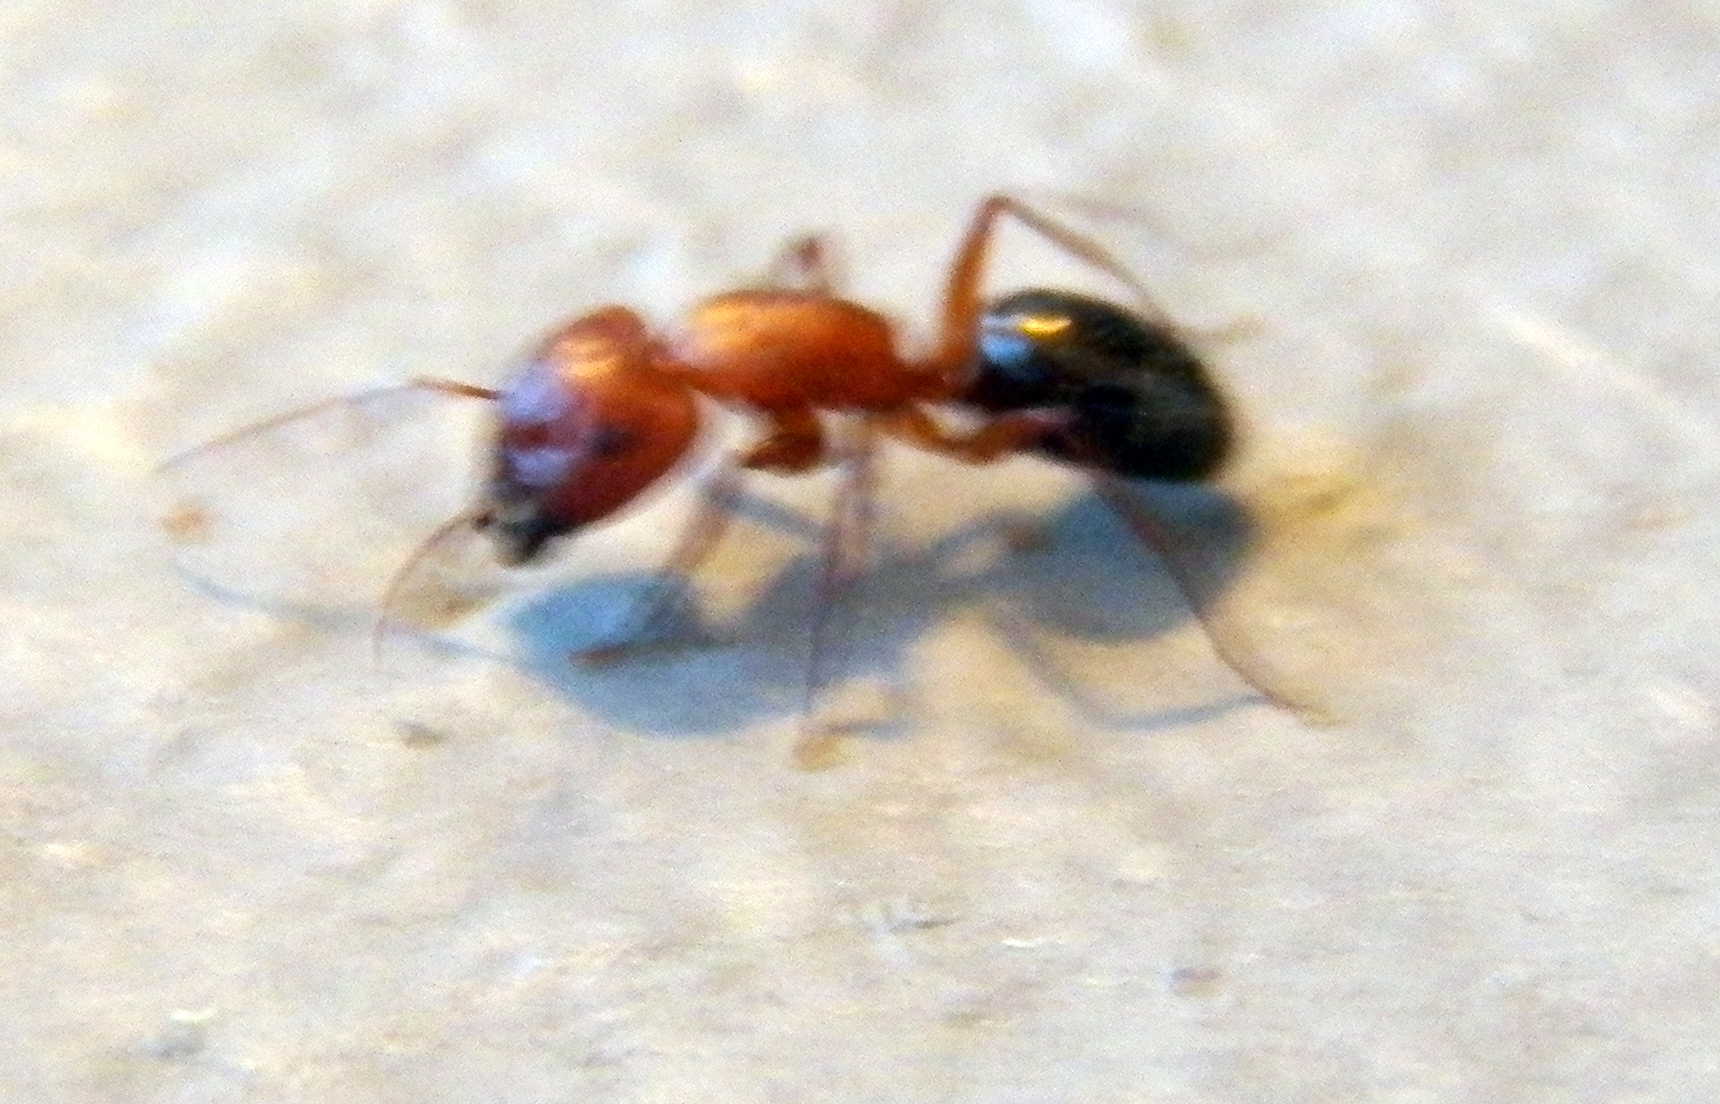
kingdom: Animalia
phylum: Arthropoda
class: Insecta
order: Hymenoptera
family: Formicidae
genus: Camponotus
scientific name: Camponotus decipiens
